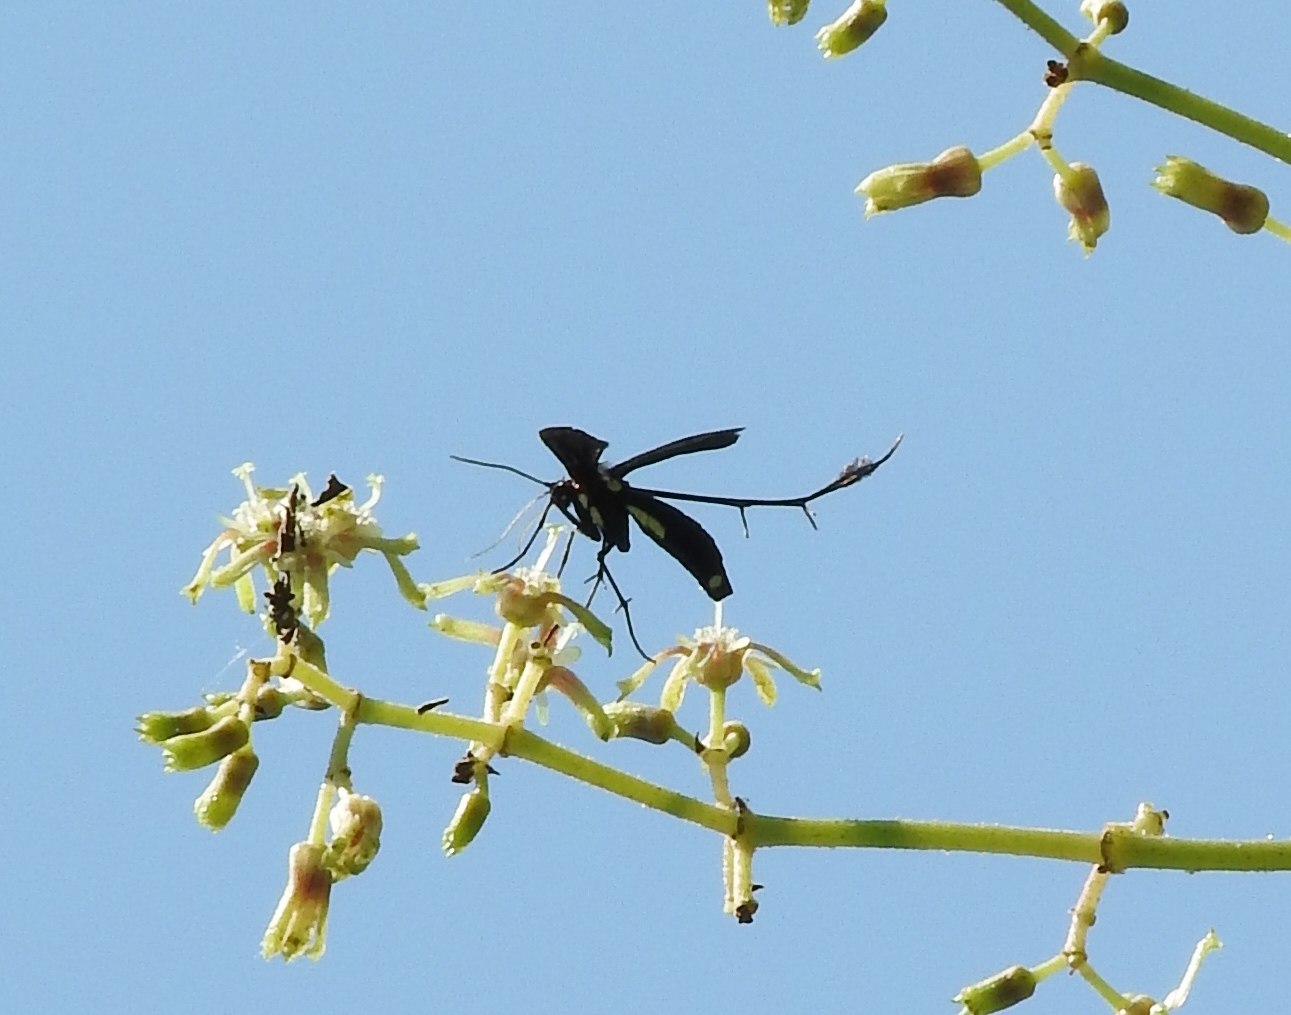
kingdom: Animalia
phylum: Arthropoda
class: Insecta
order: Lepidoptera
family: Pterophoridae
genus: Hellinsia
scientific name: Hellinsia chamelai
